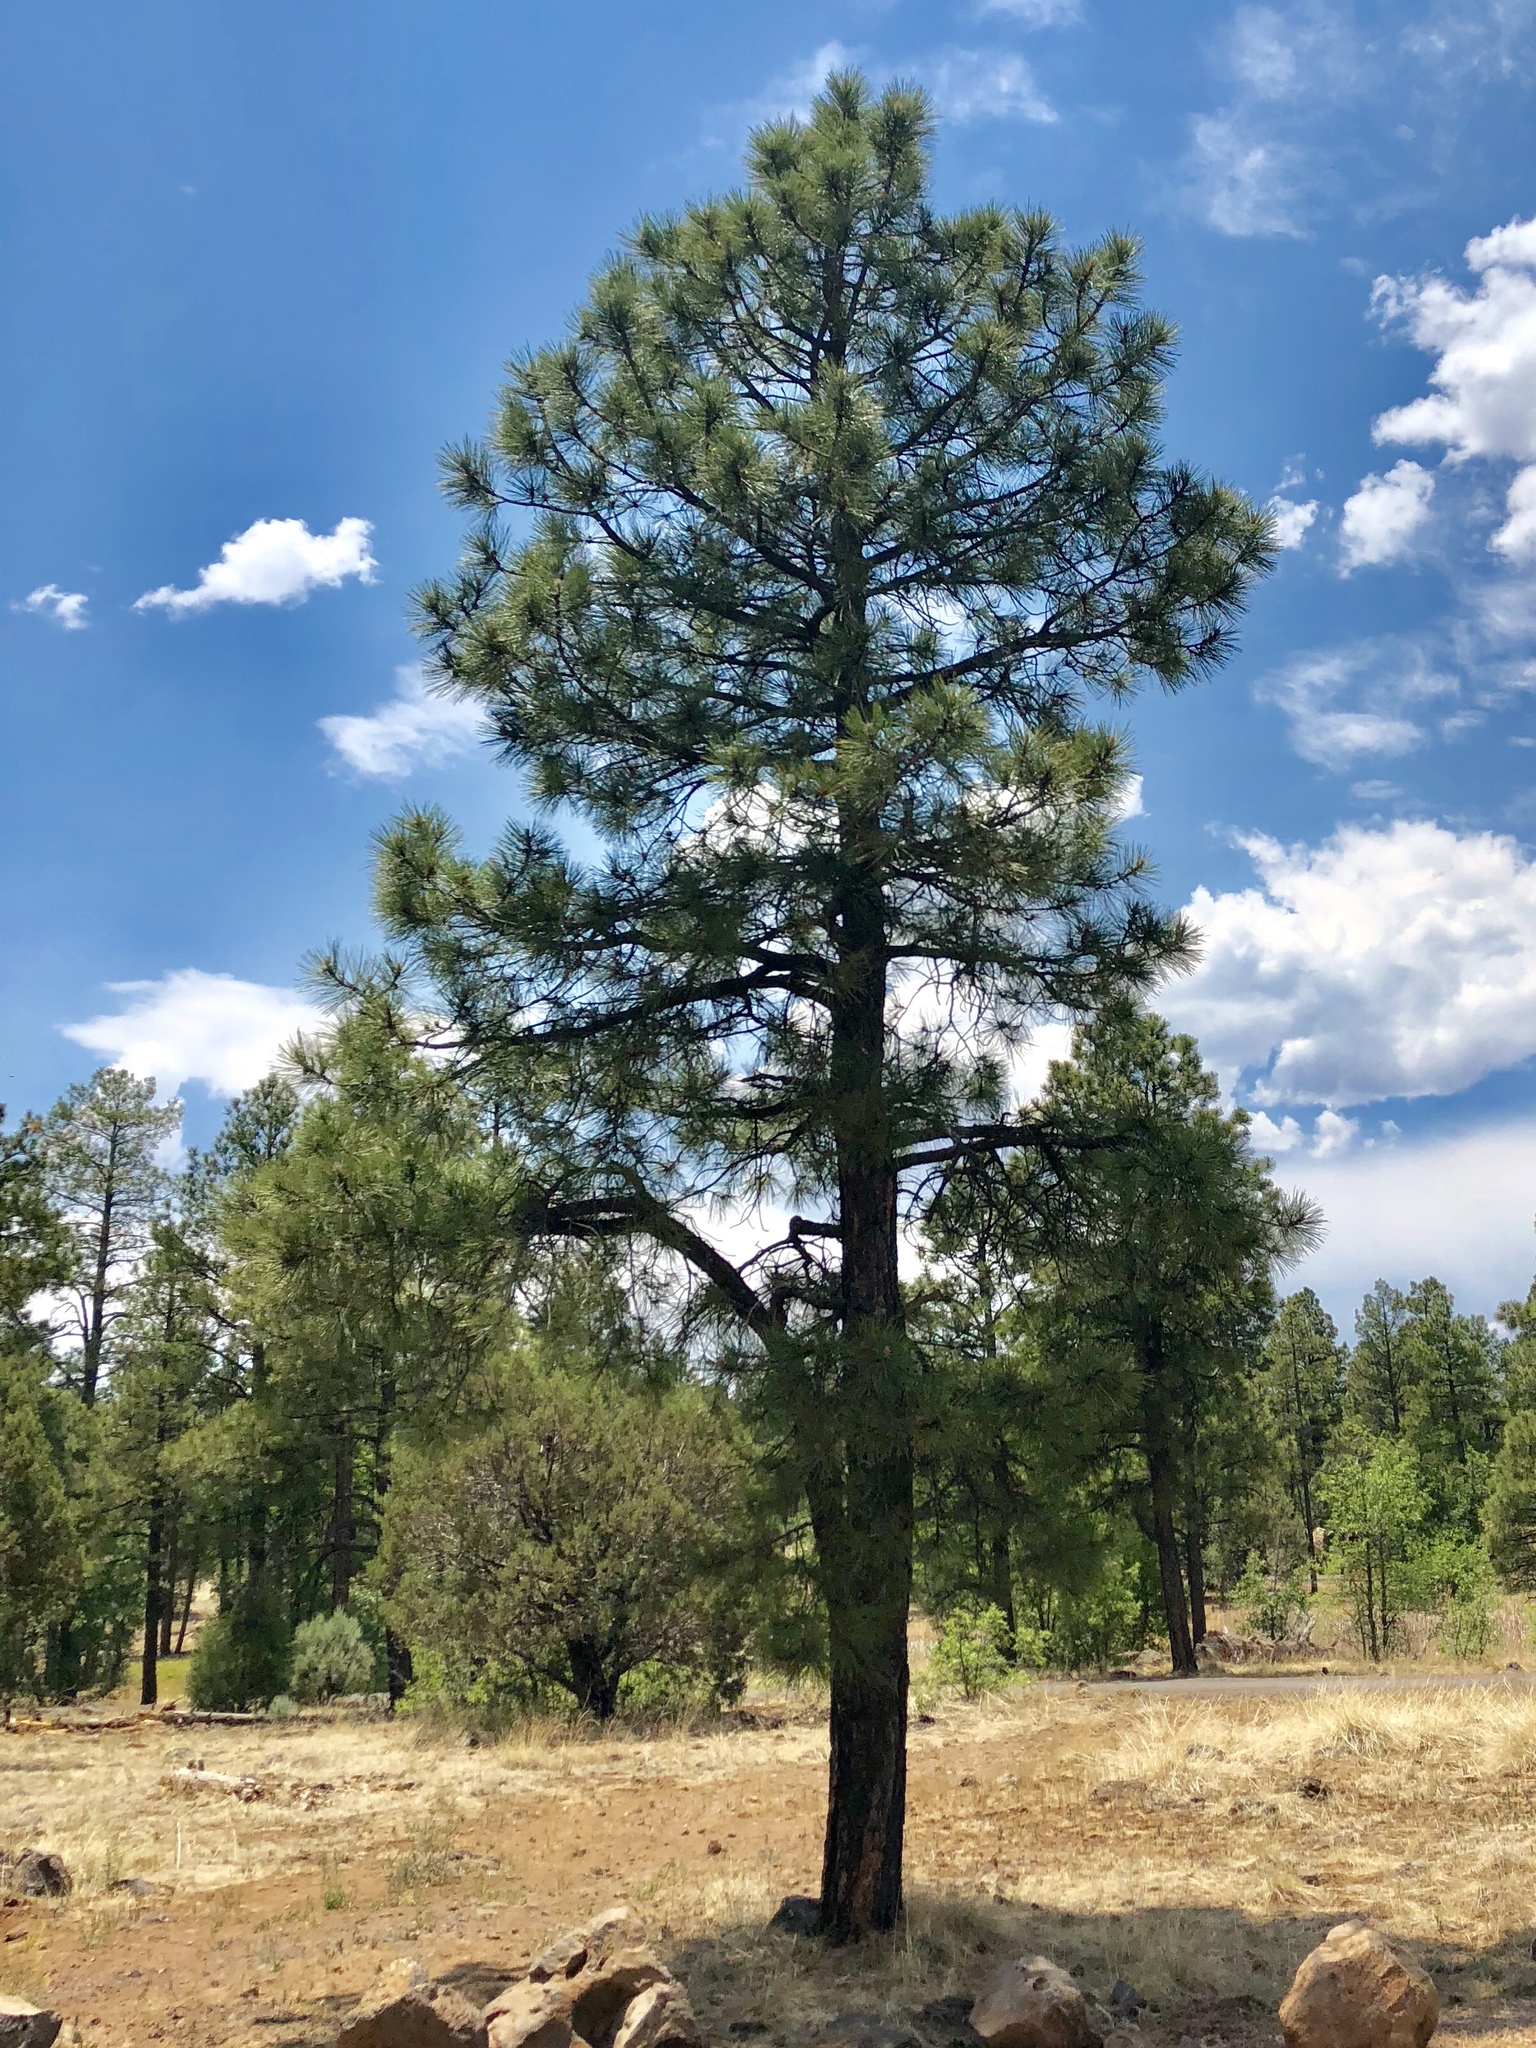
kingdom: Plantae
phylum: Tracheophyta
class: Pinopsida
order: Pinales
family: Pinaceae
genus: Pinus
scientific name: Pinus ponderosa
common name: Western yellow-pine
